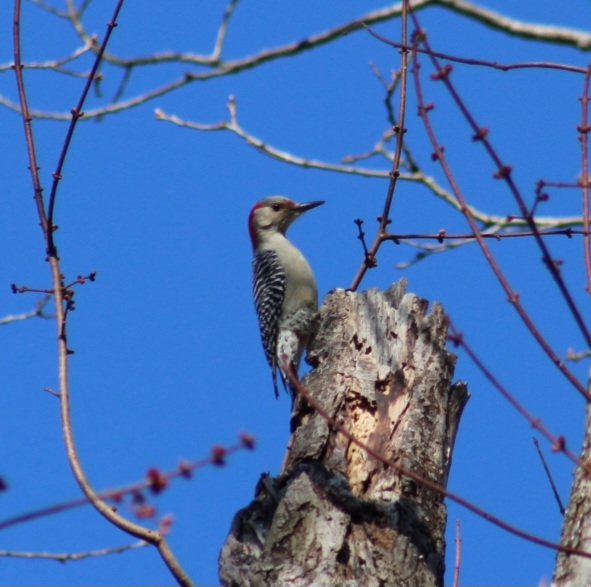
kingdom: Animalia
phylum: Chordata
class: Aves
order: Piciformes
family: Picidae
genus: Melanerpes
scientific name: Melanerpes carolinus
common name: Red-bellied woodpecker
